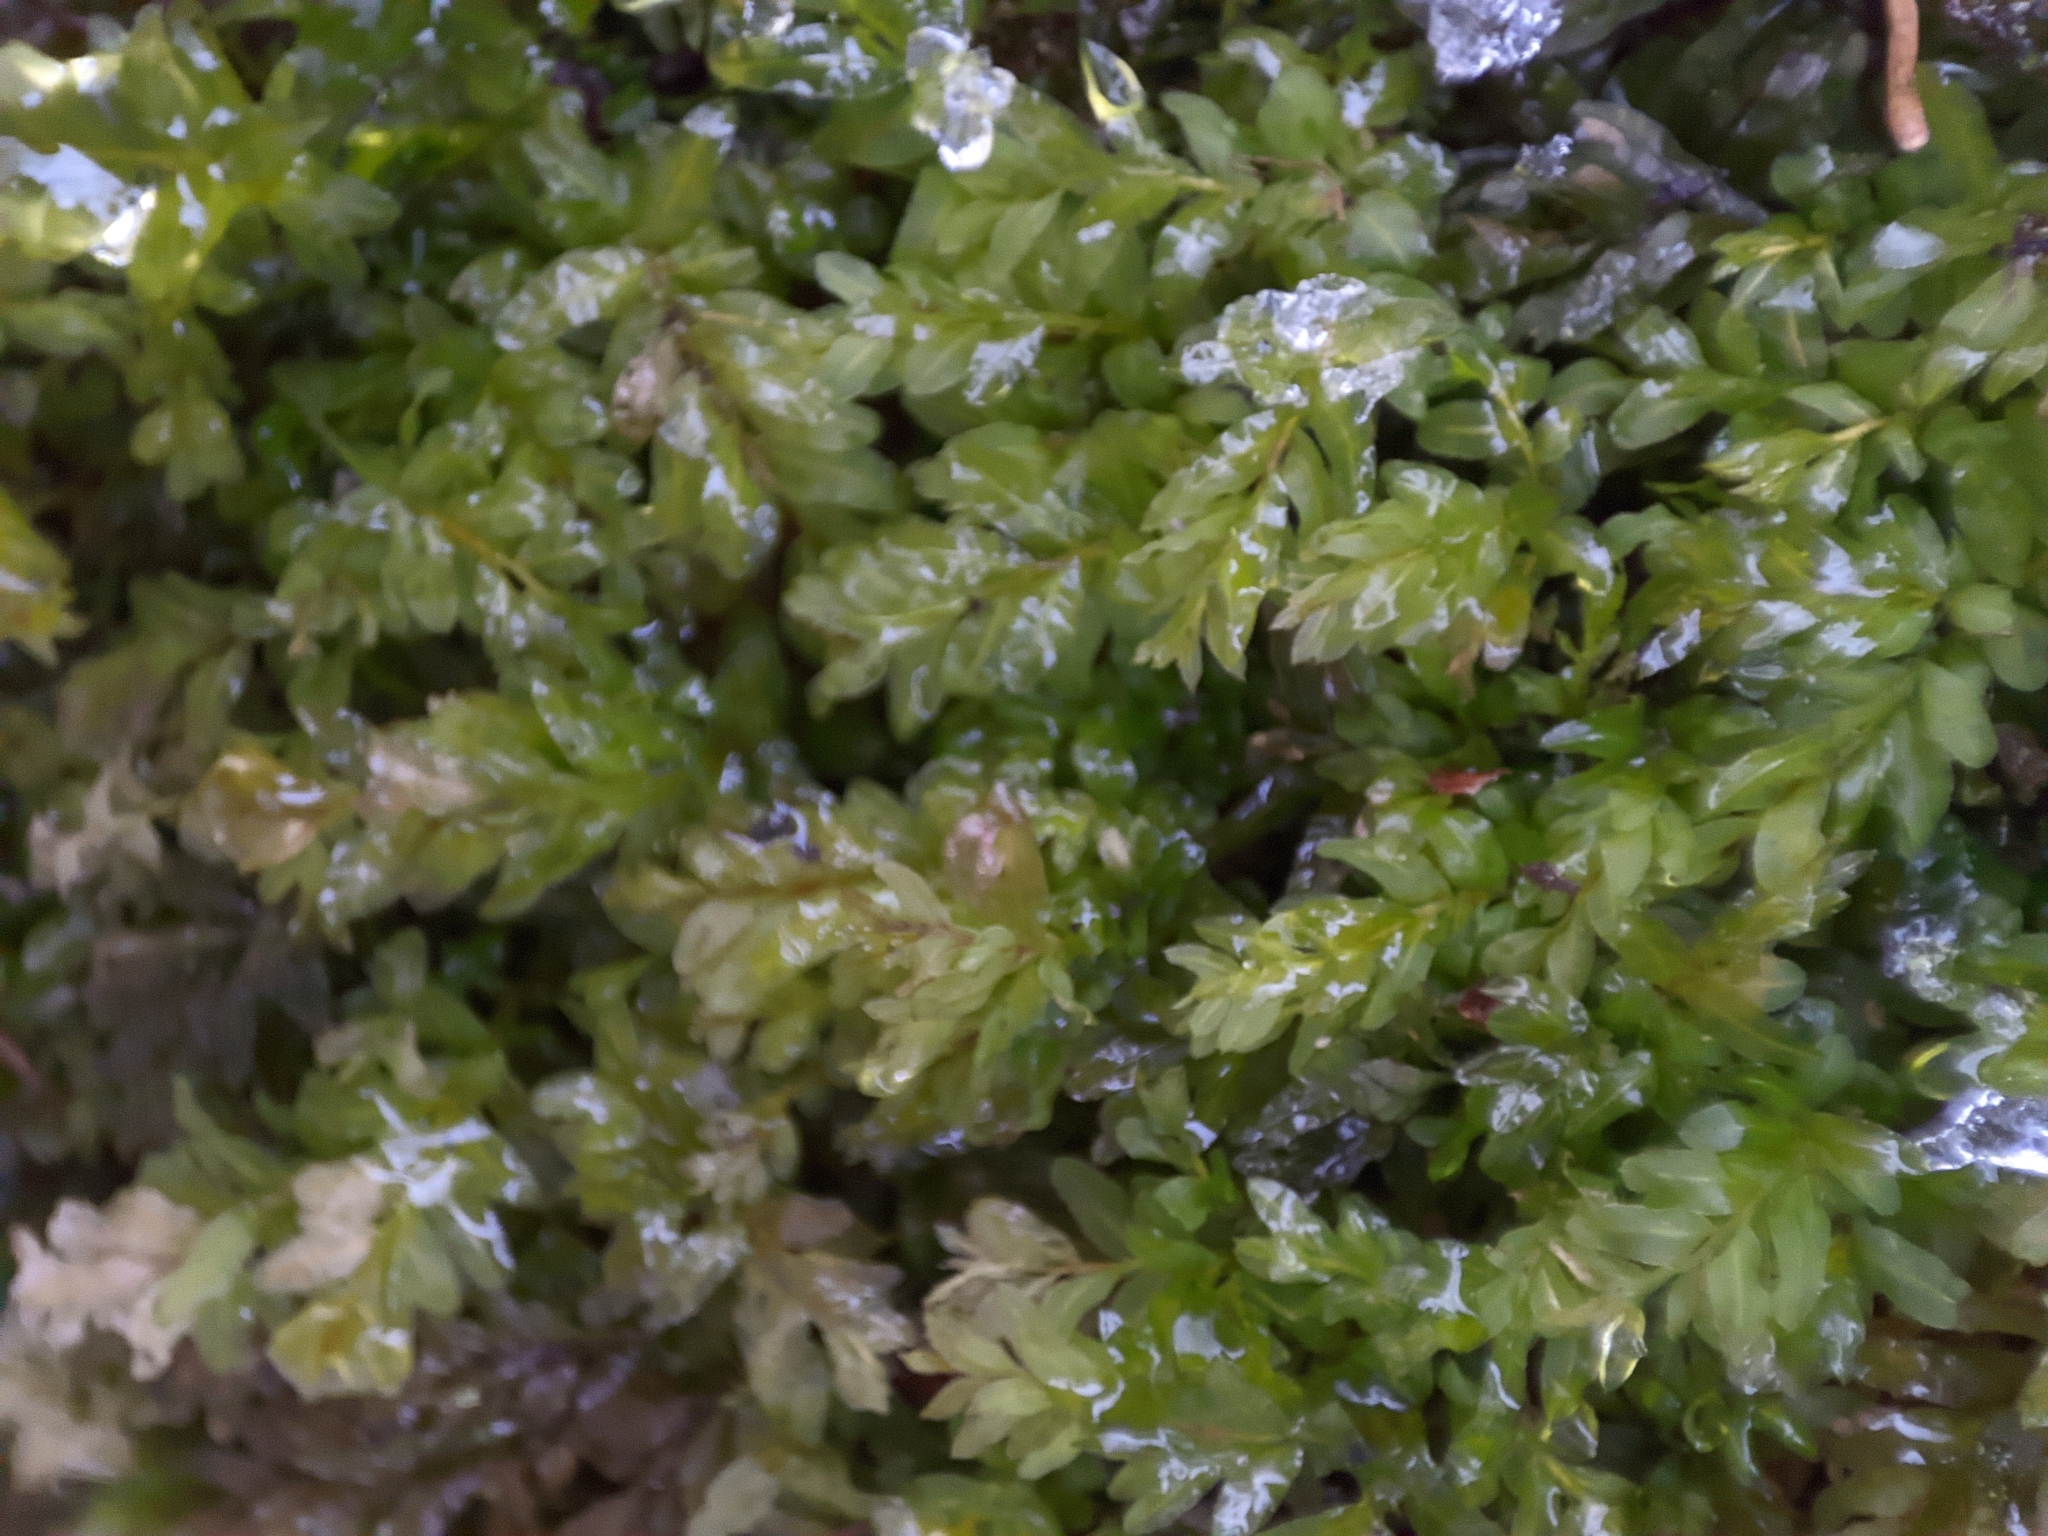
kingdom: Plantae
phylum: Bryophyta
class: Bryopsida
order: Bryales
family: Mniaceae
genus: Plagiomnium
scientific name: Plagiomnium undulatum
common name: Hart's-tongue thyme-moss
